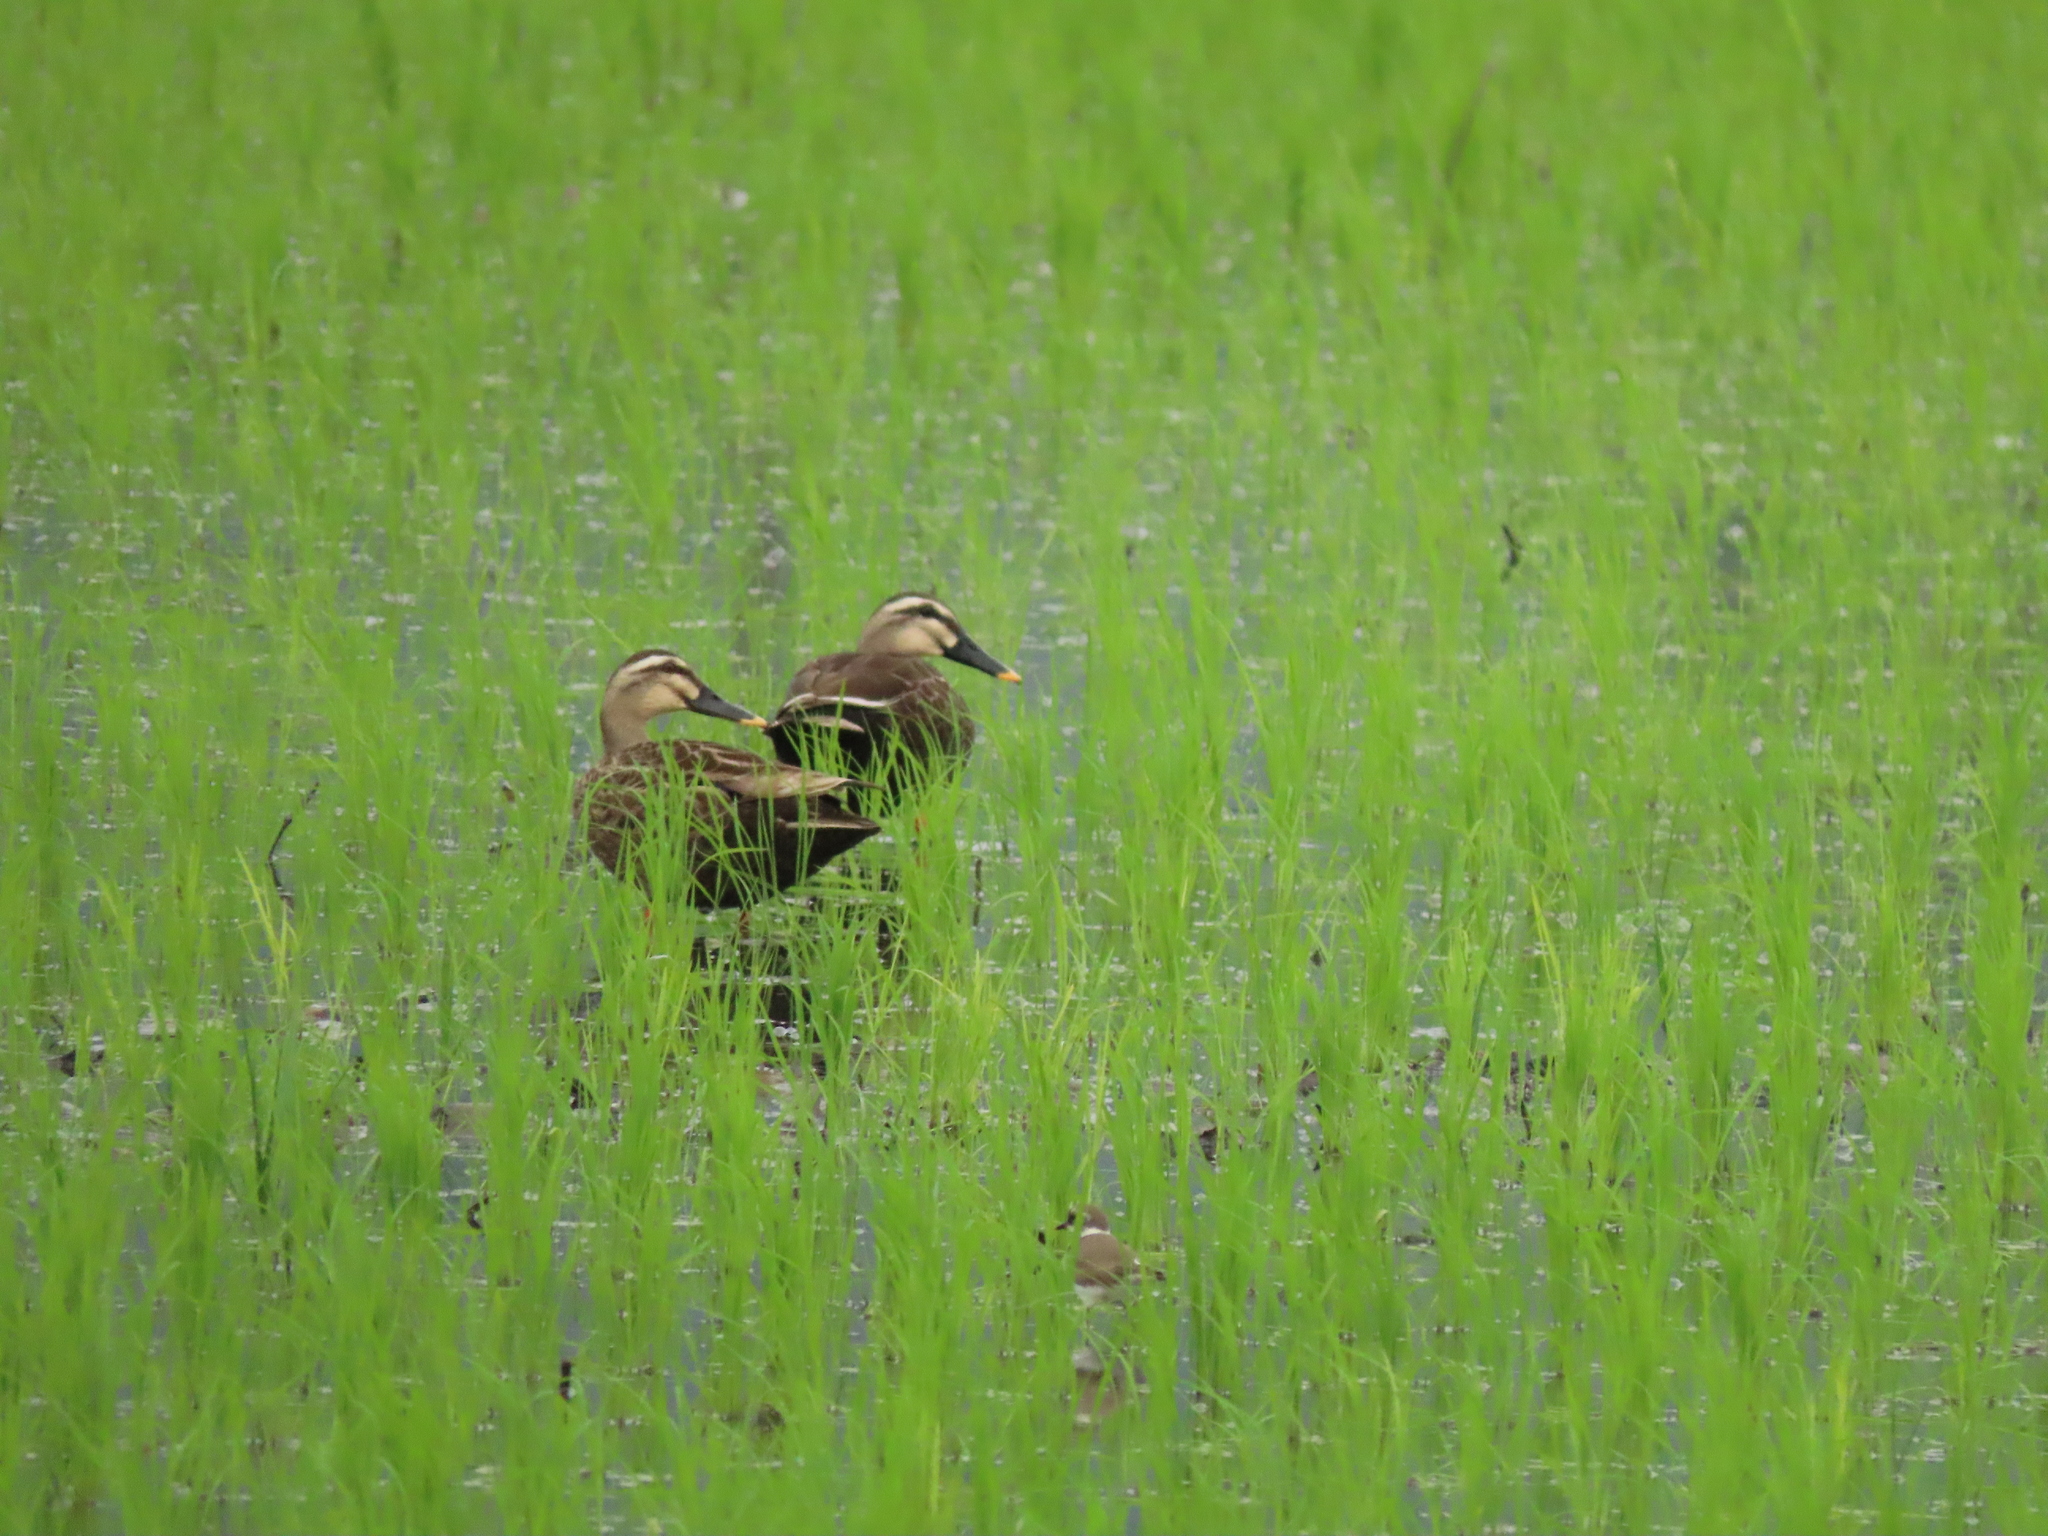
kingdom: Animalia
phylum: Chordata
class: Aves
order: Anseriformes
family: Anatidae
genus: Anas
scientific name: Anas zonorhyncha
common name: Eastern spot-billed duck
